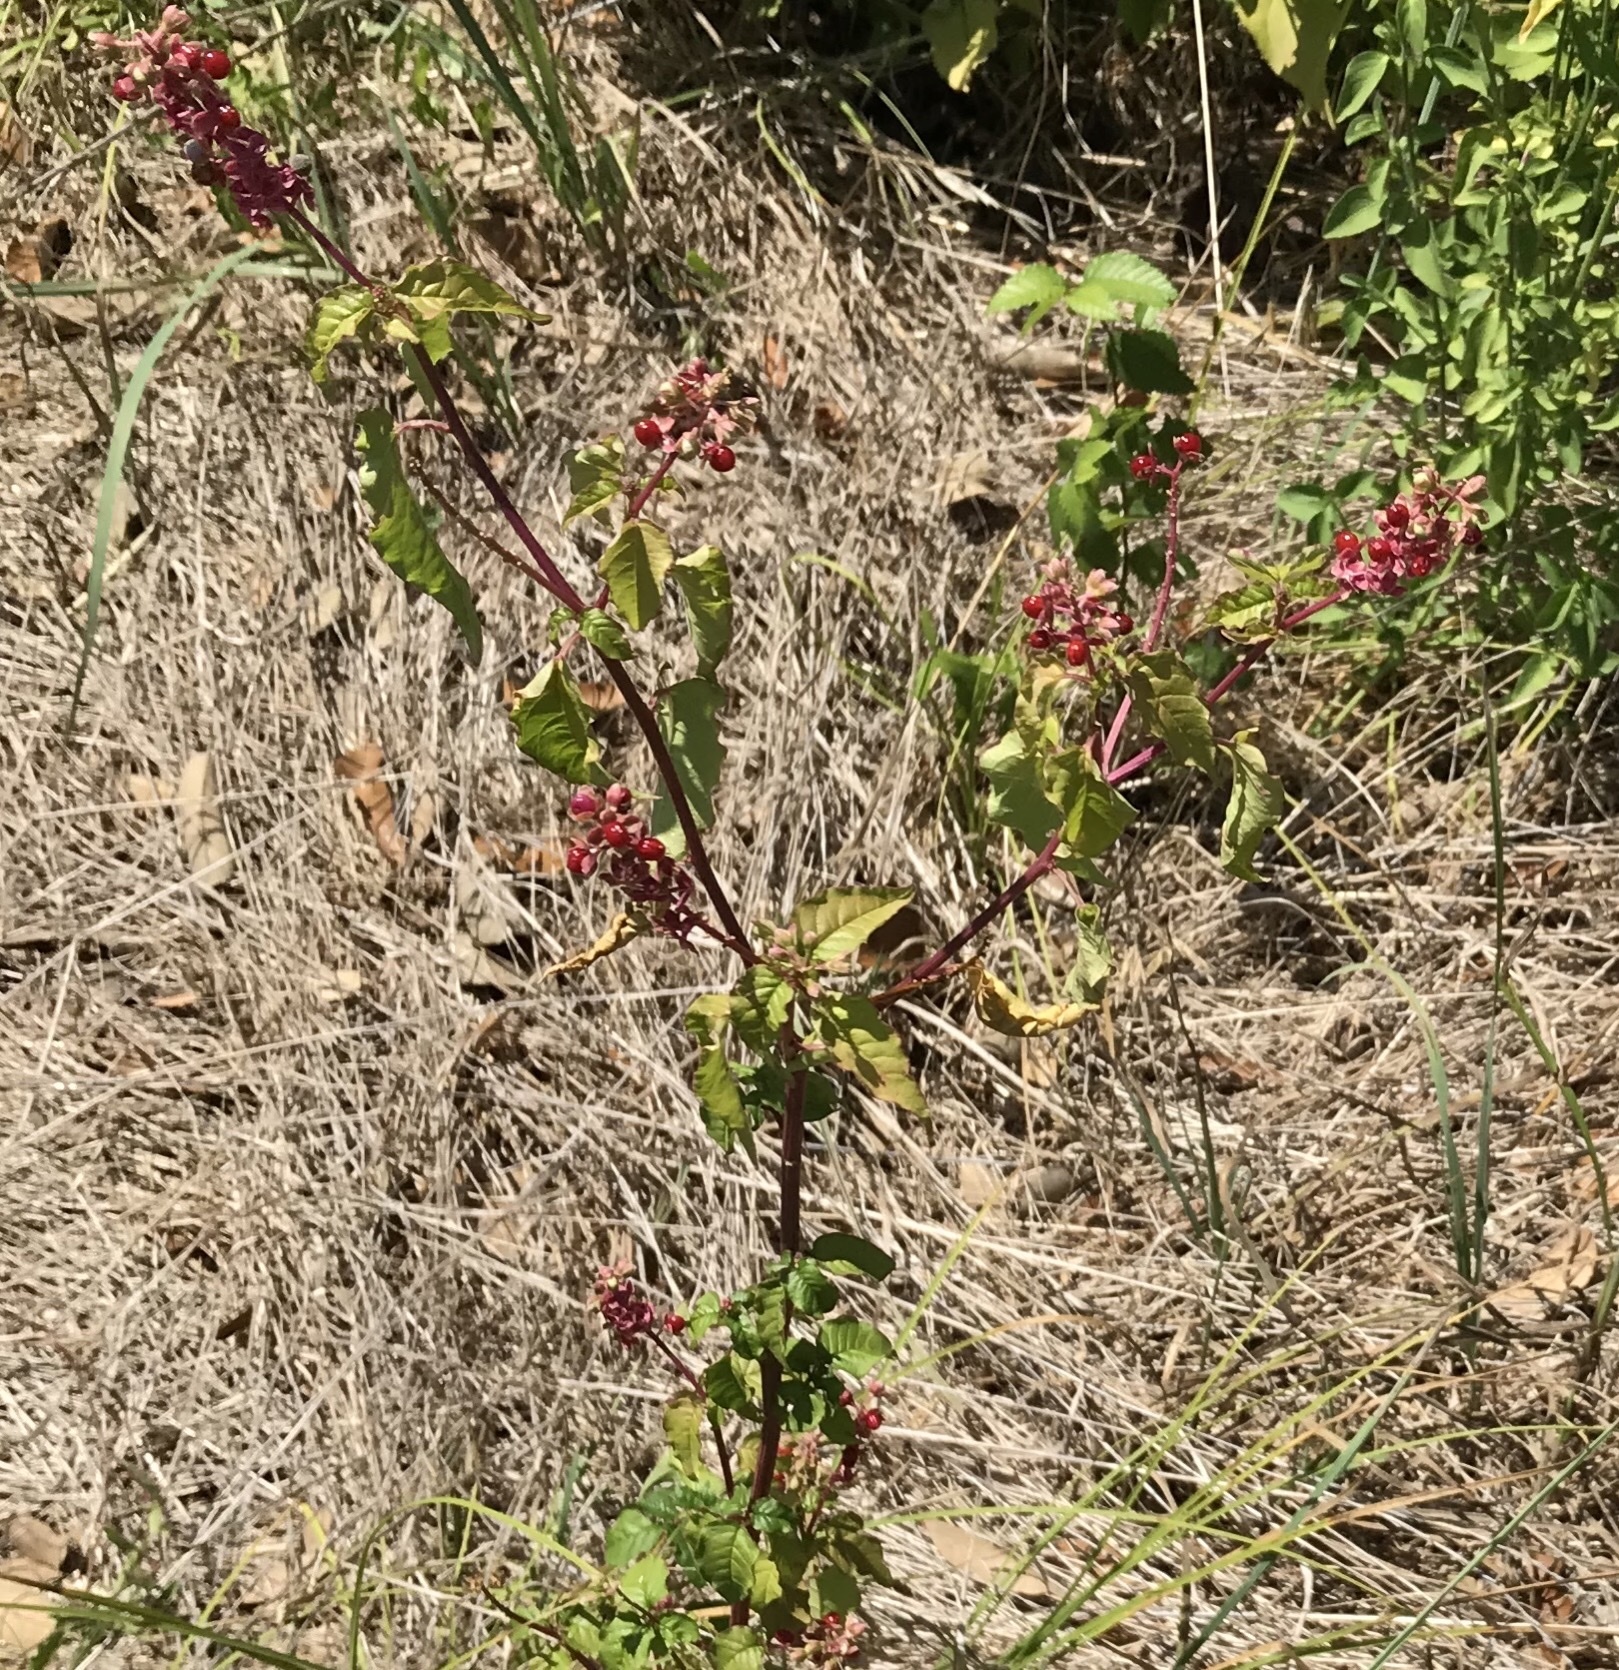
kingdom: Plantae
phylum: Tracheophyta
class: Magnoliopsida
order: Caryophyllales
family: Phytolaccaceae
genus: Rivina
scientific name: Rivina humilis
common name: Rougeplant
